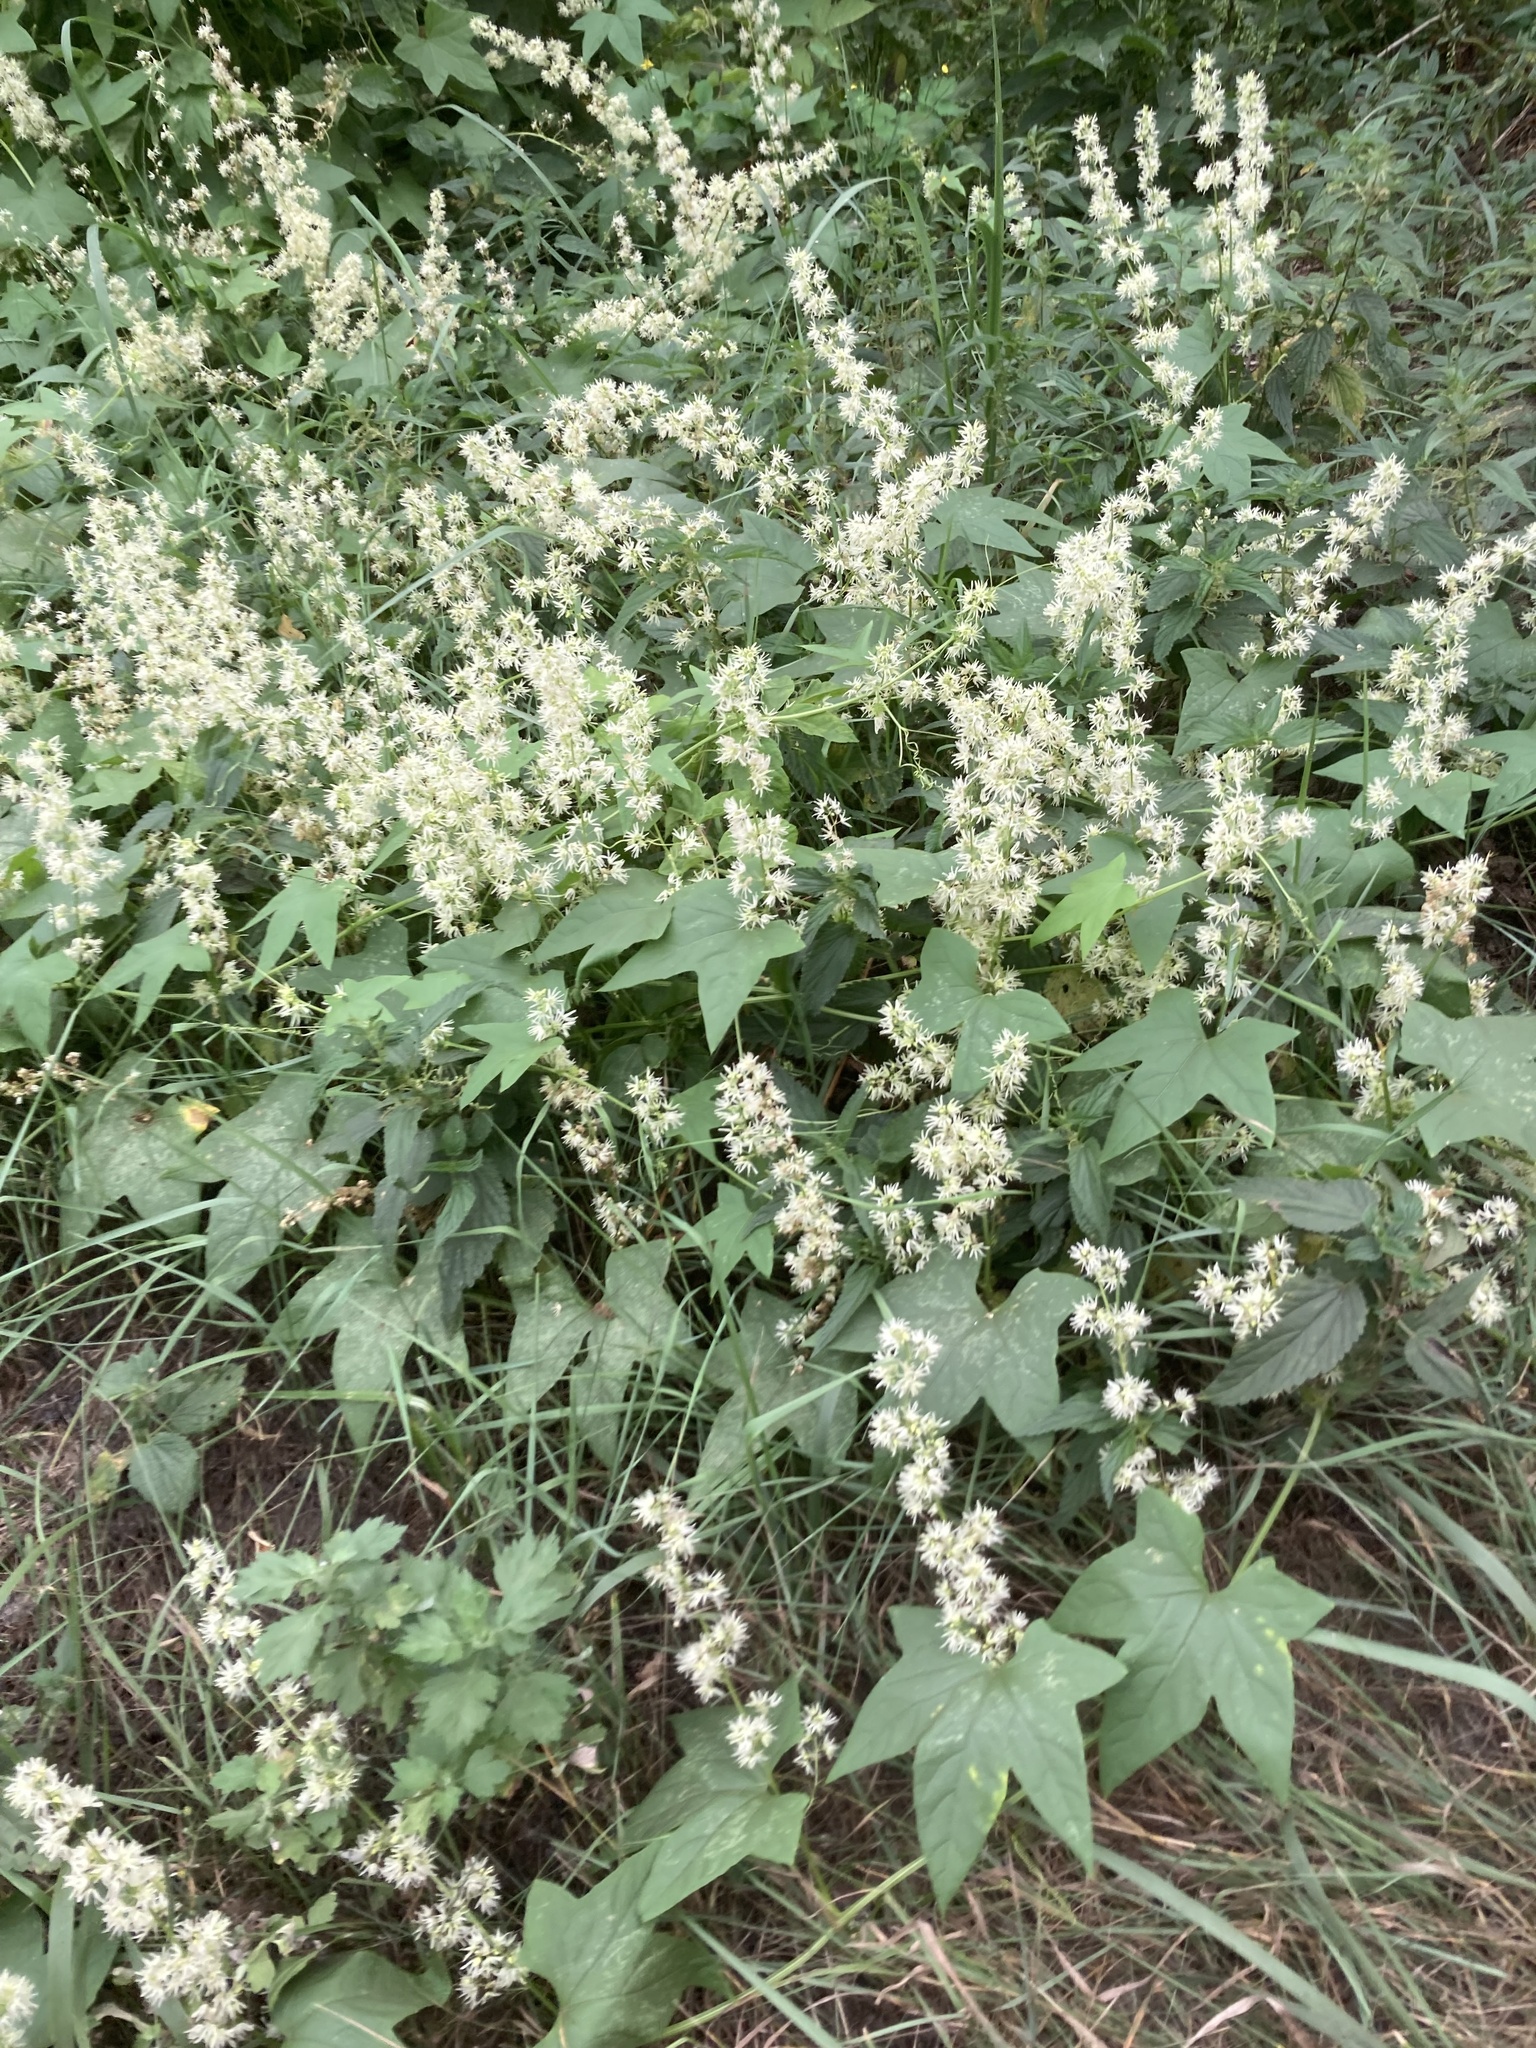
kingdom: Plantae
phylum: Tracheophyta
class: Magnoliopsida
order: Cucurbitales
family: Cucurbitaceae
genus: Echinocystis
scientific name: Echinocystis lobata
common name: Wild cucumber
